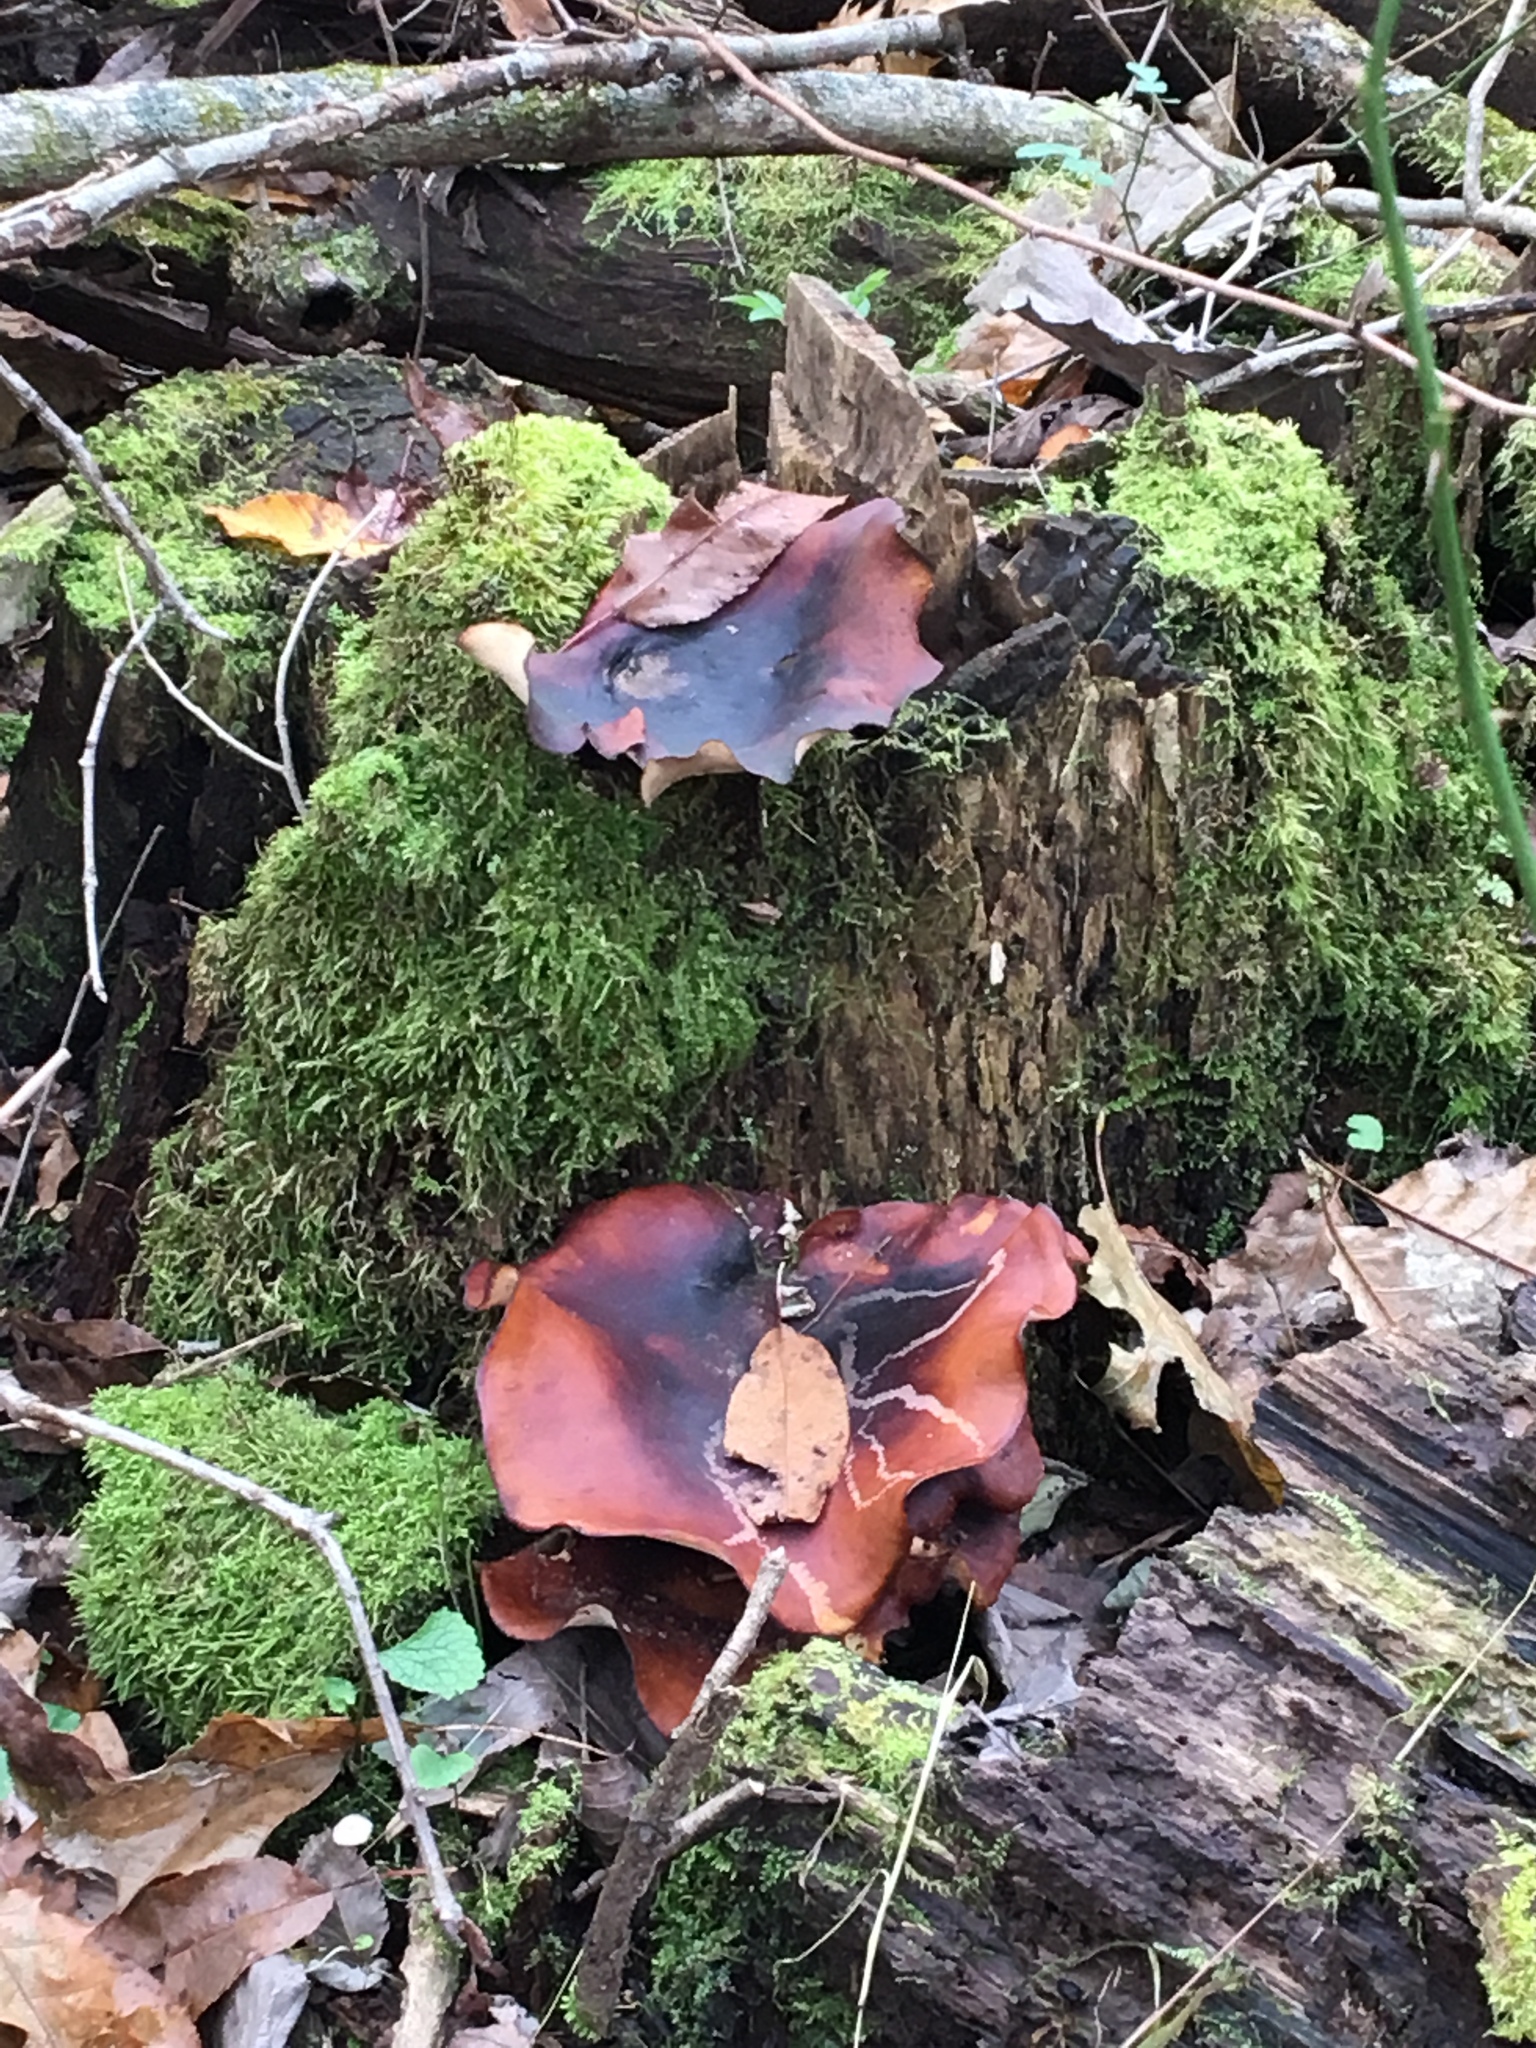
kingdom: Fungi
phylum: Basidiomycota
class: Agaricomycetes
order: Polyporales
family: Polyporaceae
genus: Picipes
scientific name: Picipes badius
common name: Bay polypore
